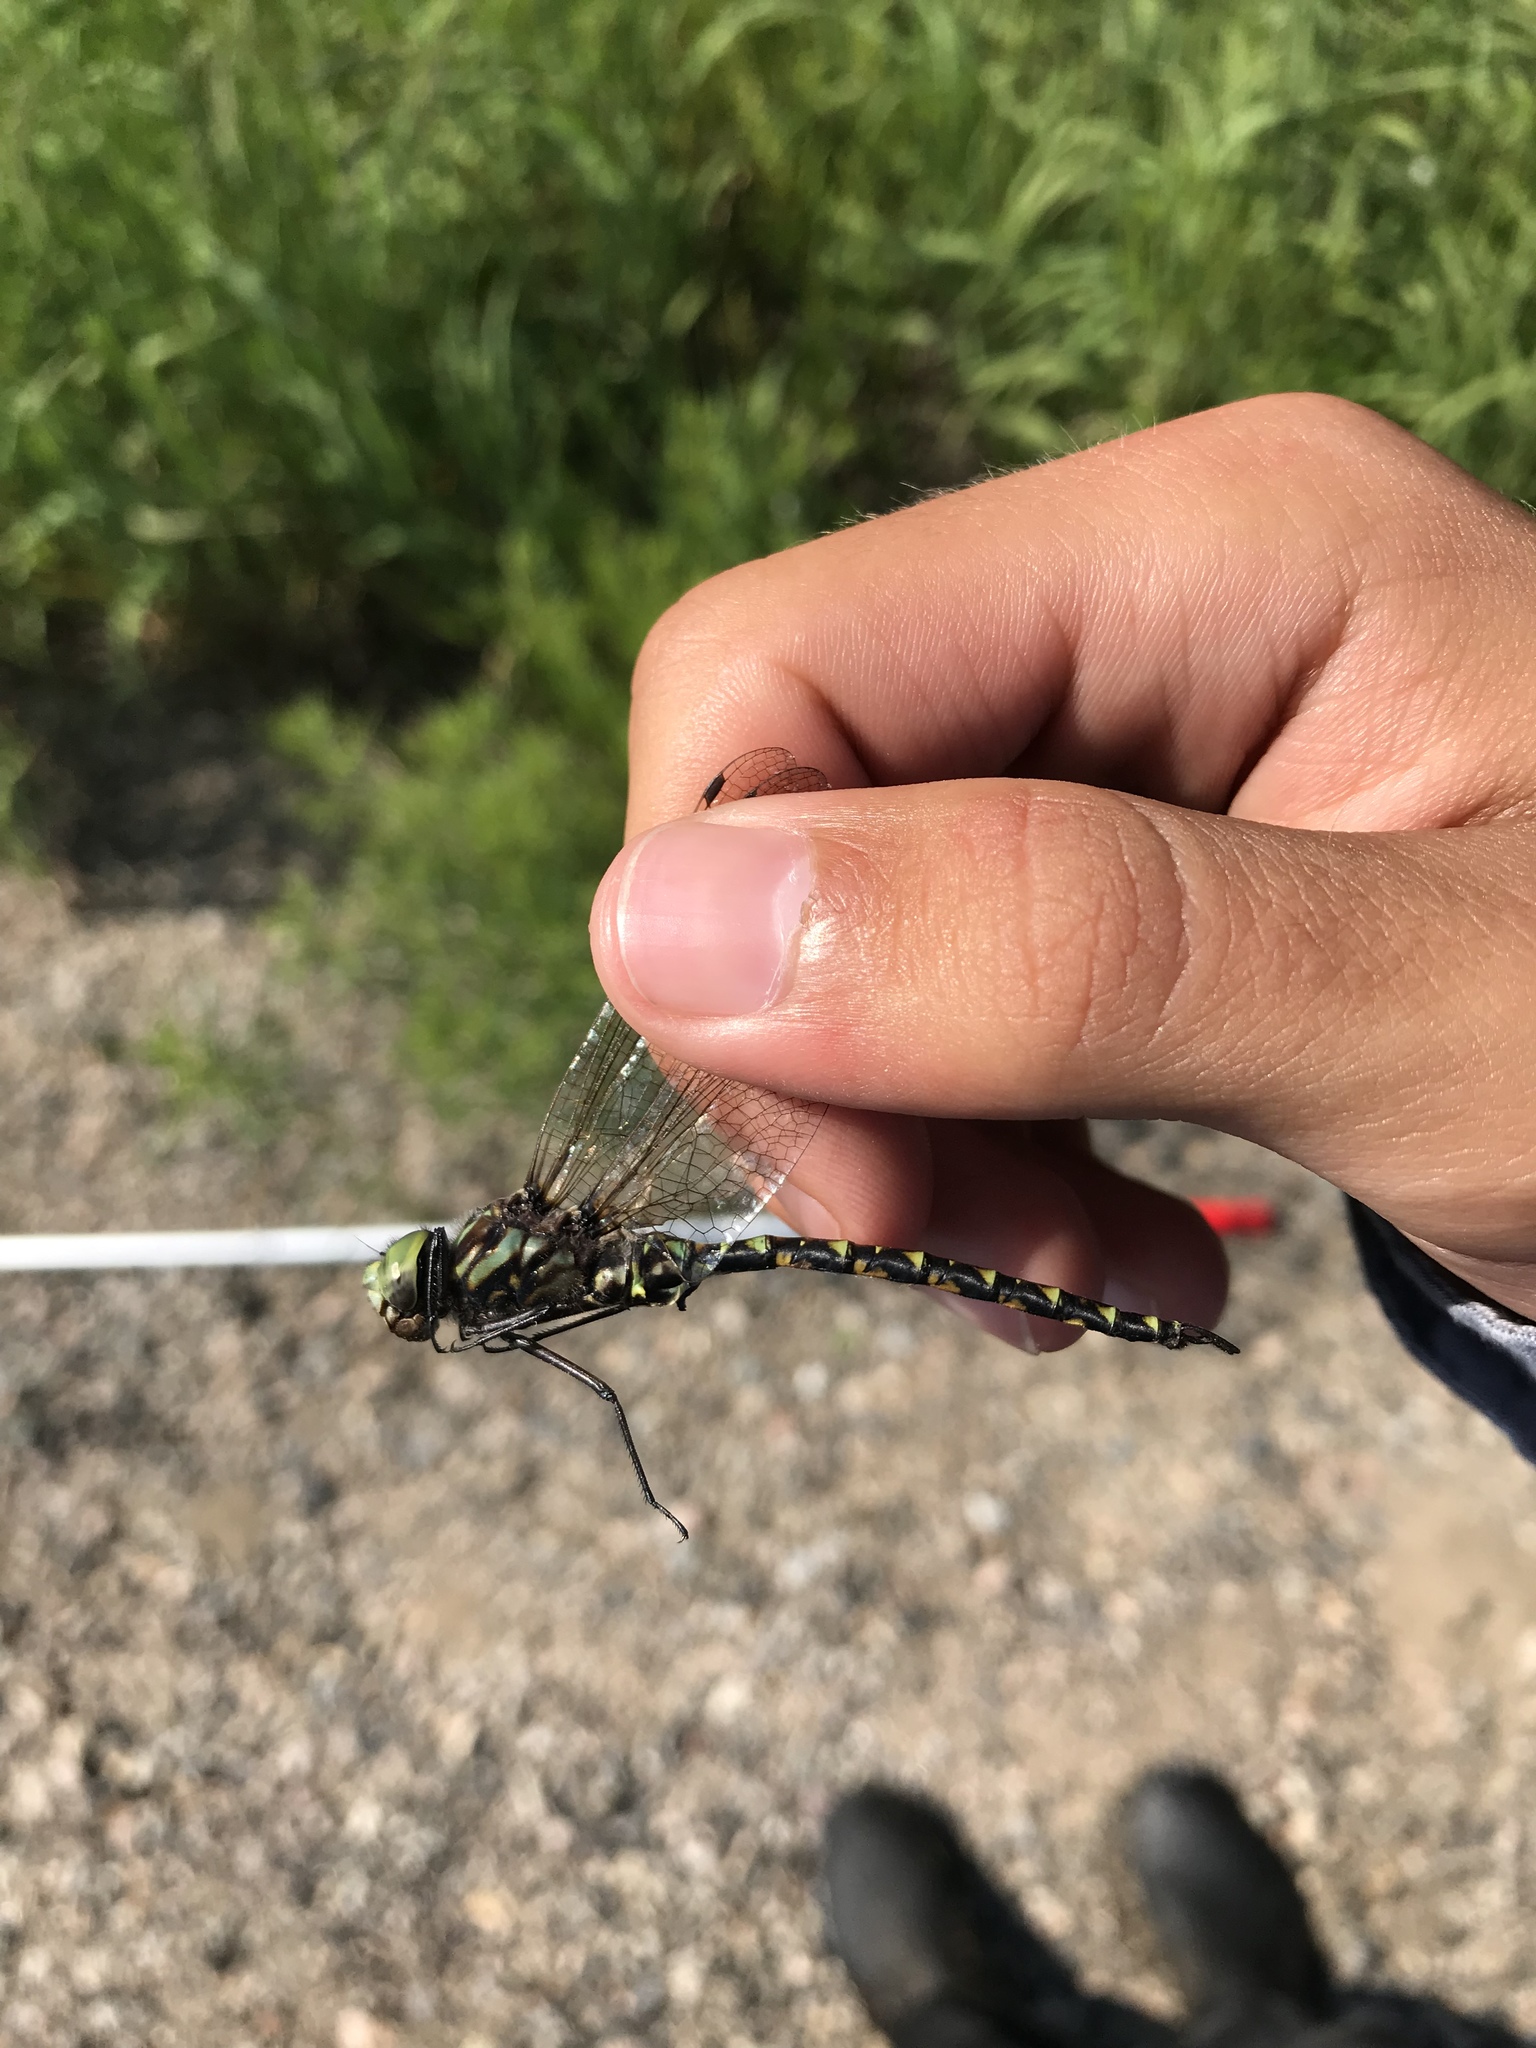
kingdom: Animalia
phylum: Arthropoda
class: Insecta
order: Odonata
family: Aeshnidae
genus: Gomphaeschna
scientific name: Gomphaeschna furcillata
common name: Harlequin darner
